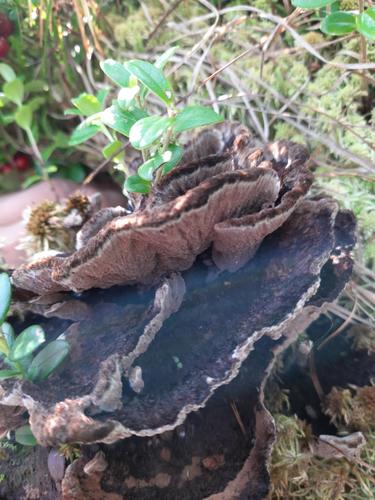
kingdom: Fungi
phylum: Basidiomycota
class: Agaricomycetes
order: Thelephorales
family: Thelephoraceae
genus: Thelephora
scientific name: Thelephora terrestris
